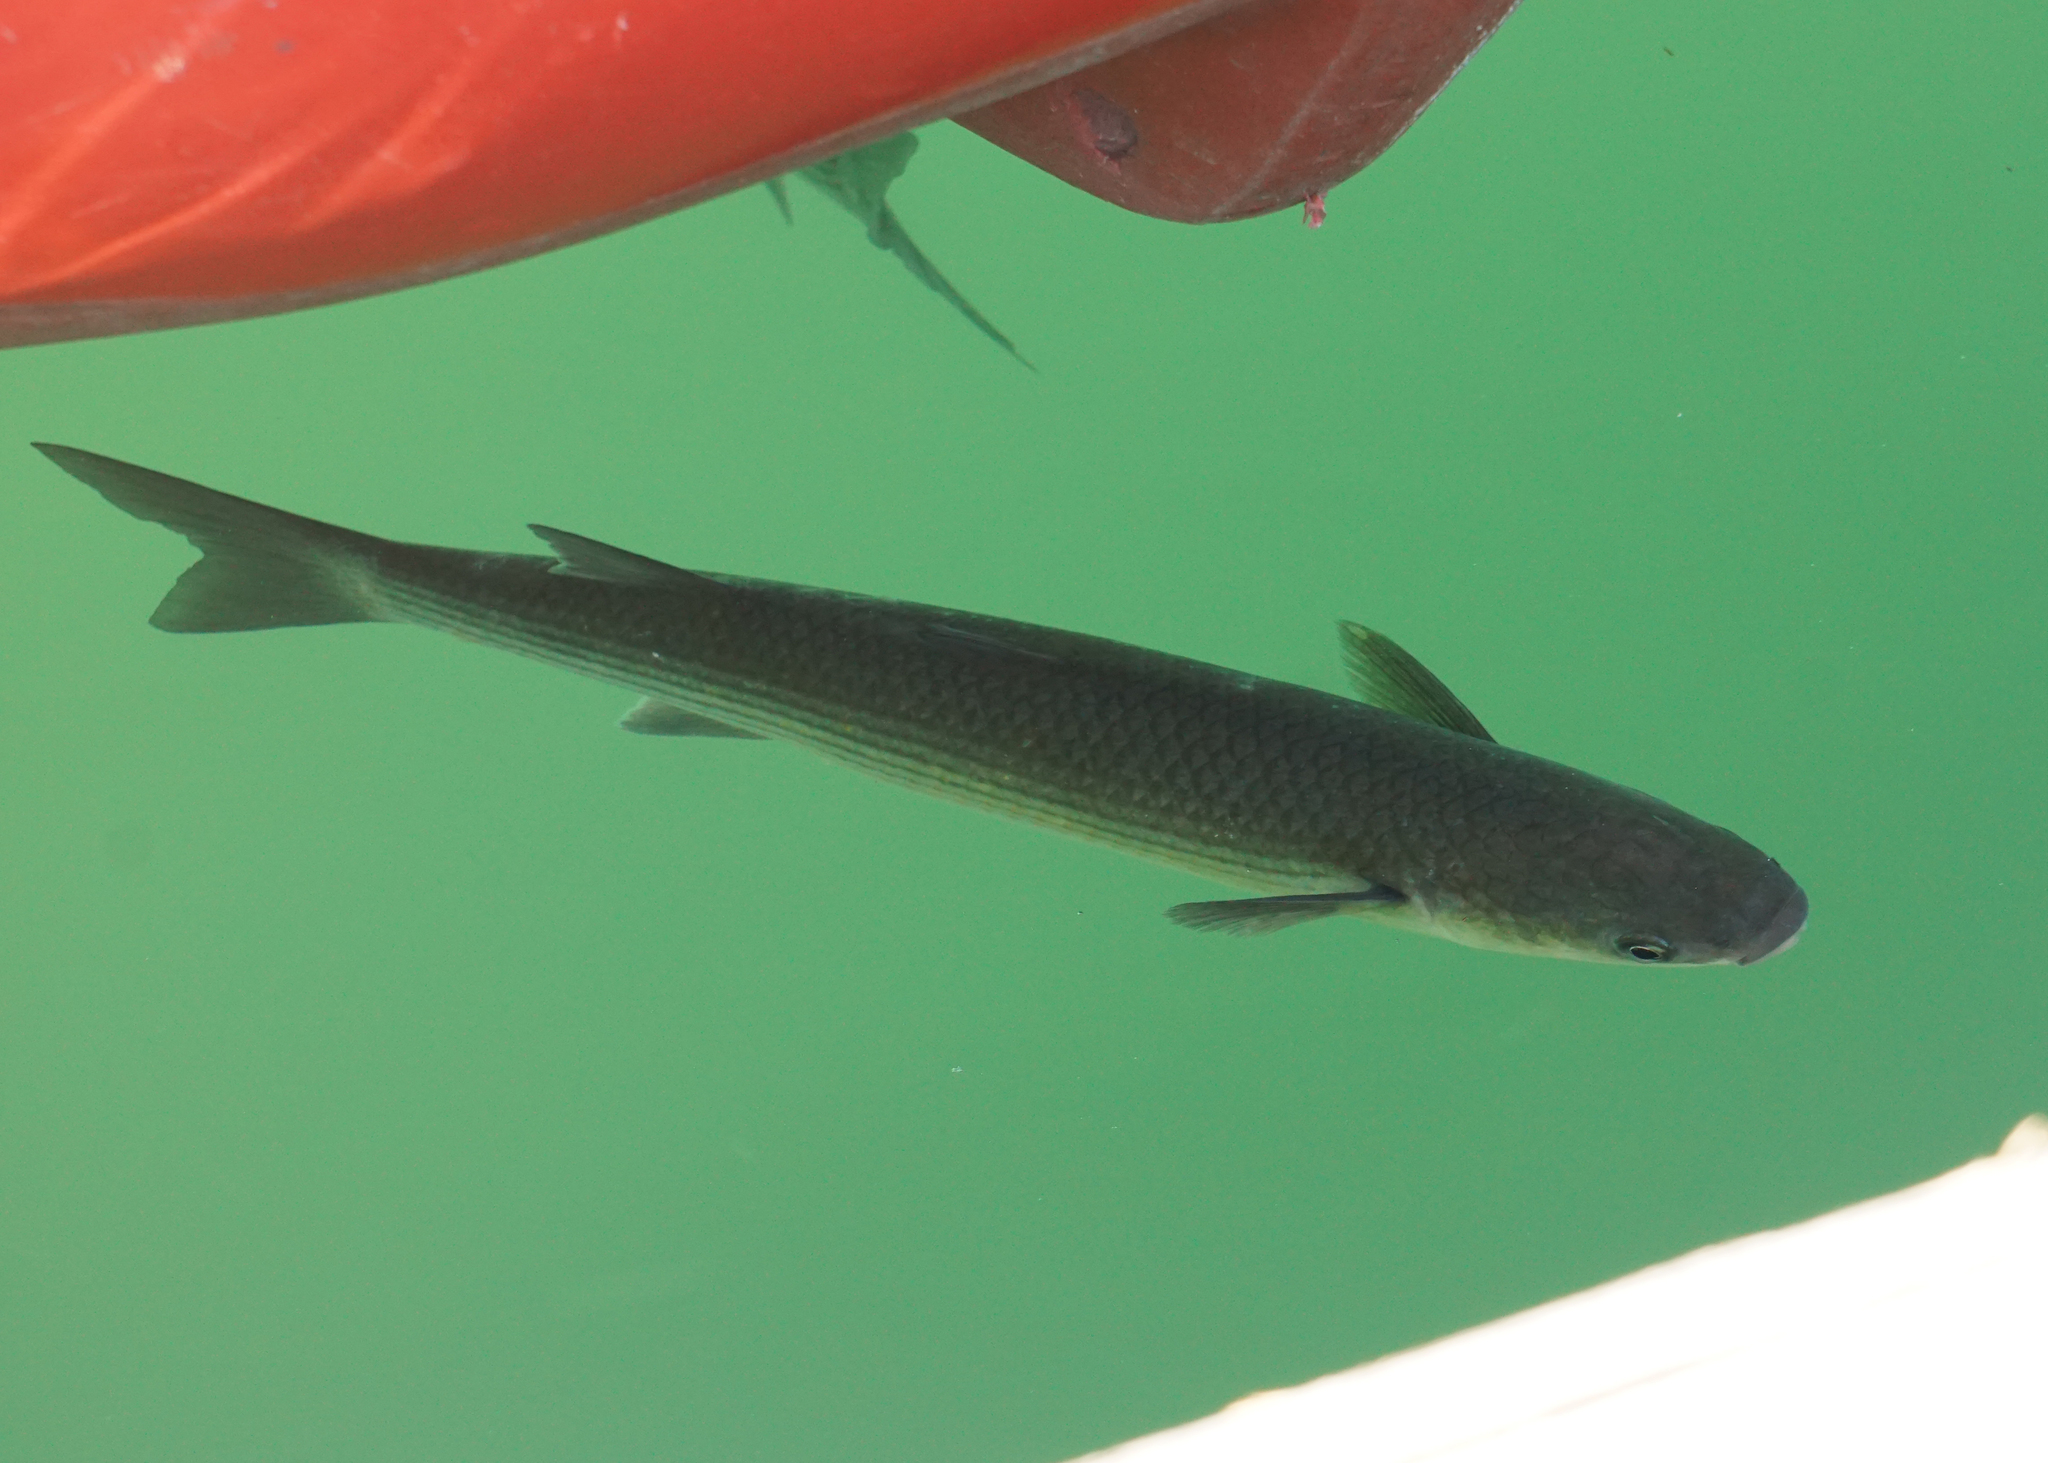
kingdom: Animalia
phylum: Chordata
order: Mugiliformes
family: Mugilidae
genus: Chelon
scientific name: Chelon labrosus
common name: Thick-lipped mullet
